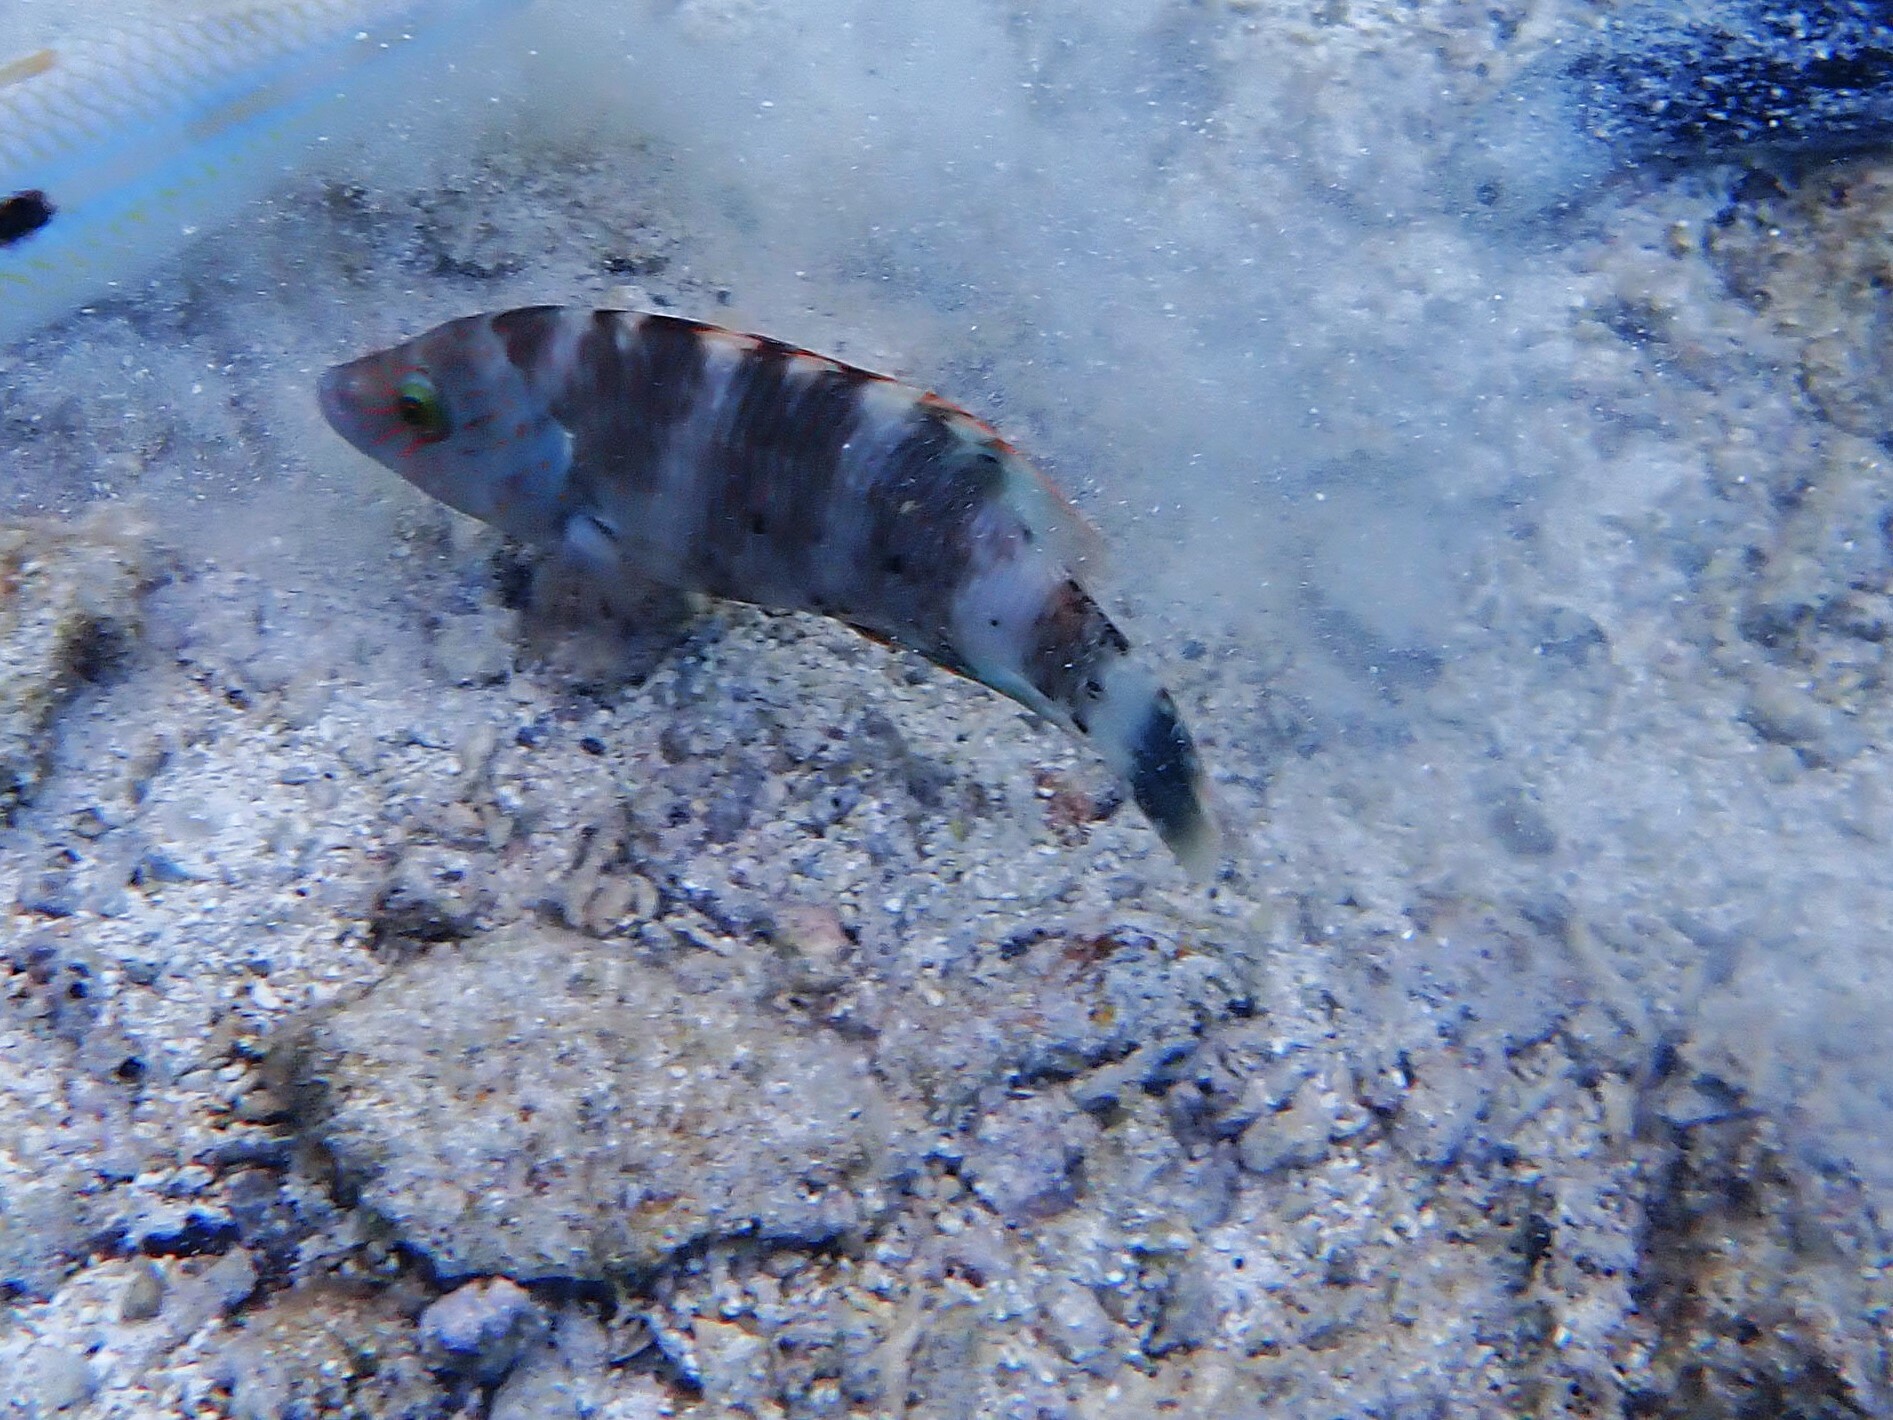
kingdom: Animalia
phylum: Chordata
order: Perciformes
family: Labridae
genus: Cheilinus
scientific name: Cheilinus trilobatus
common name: Tripletail maori wrasse
